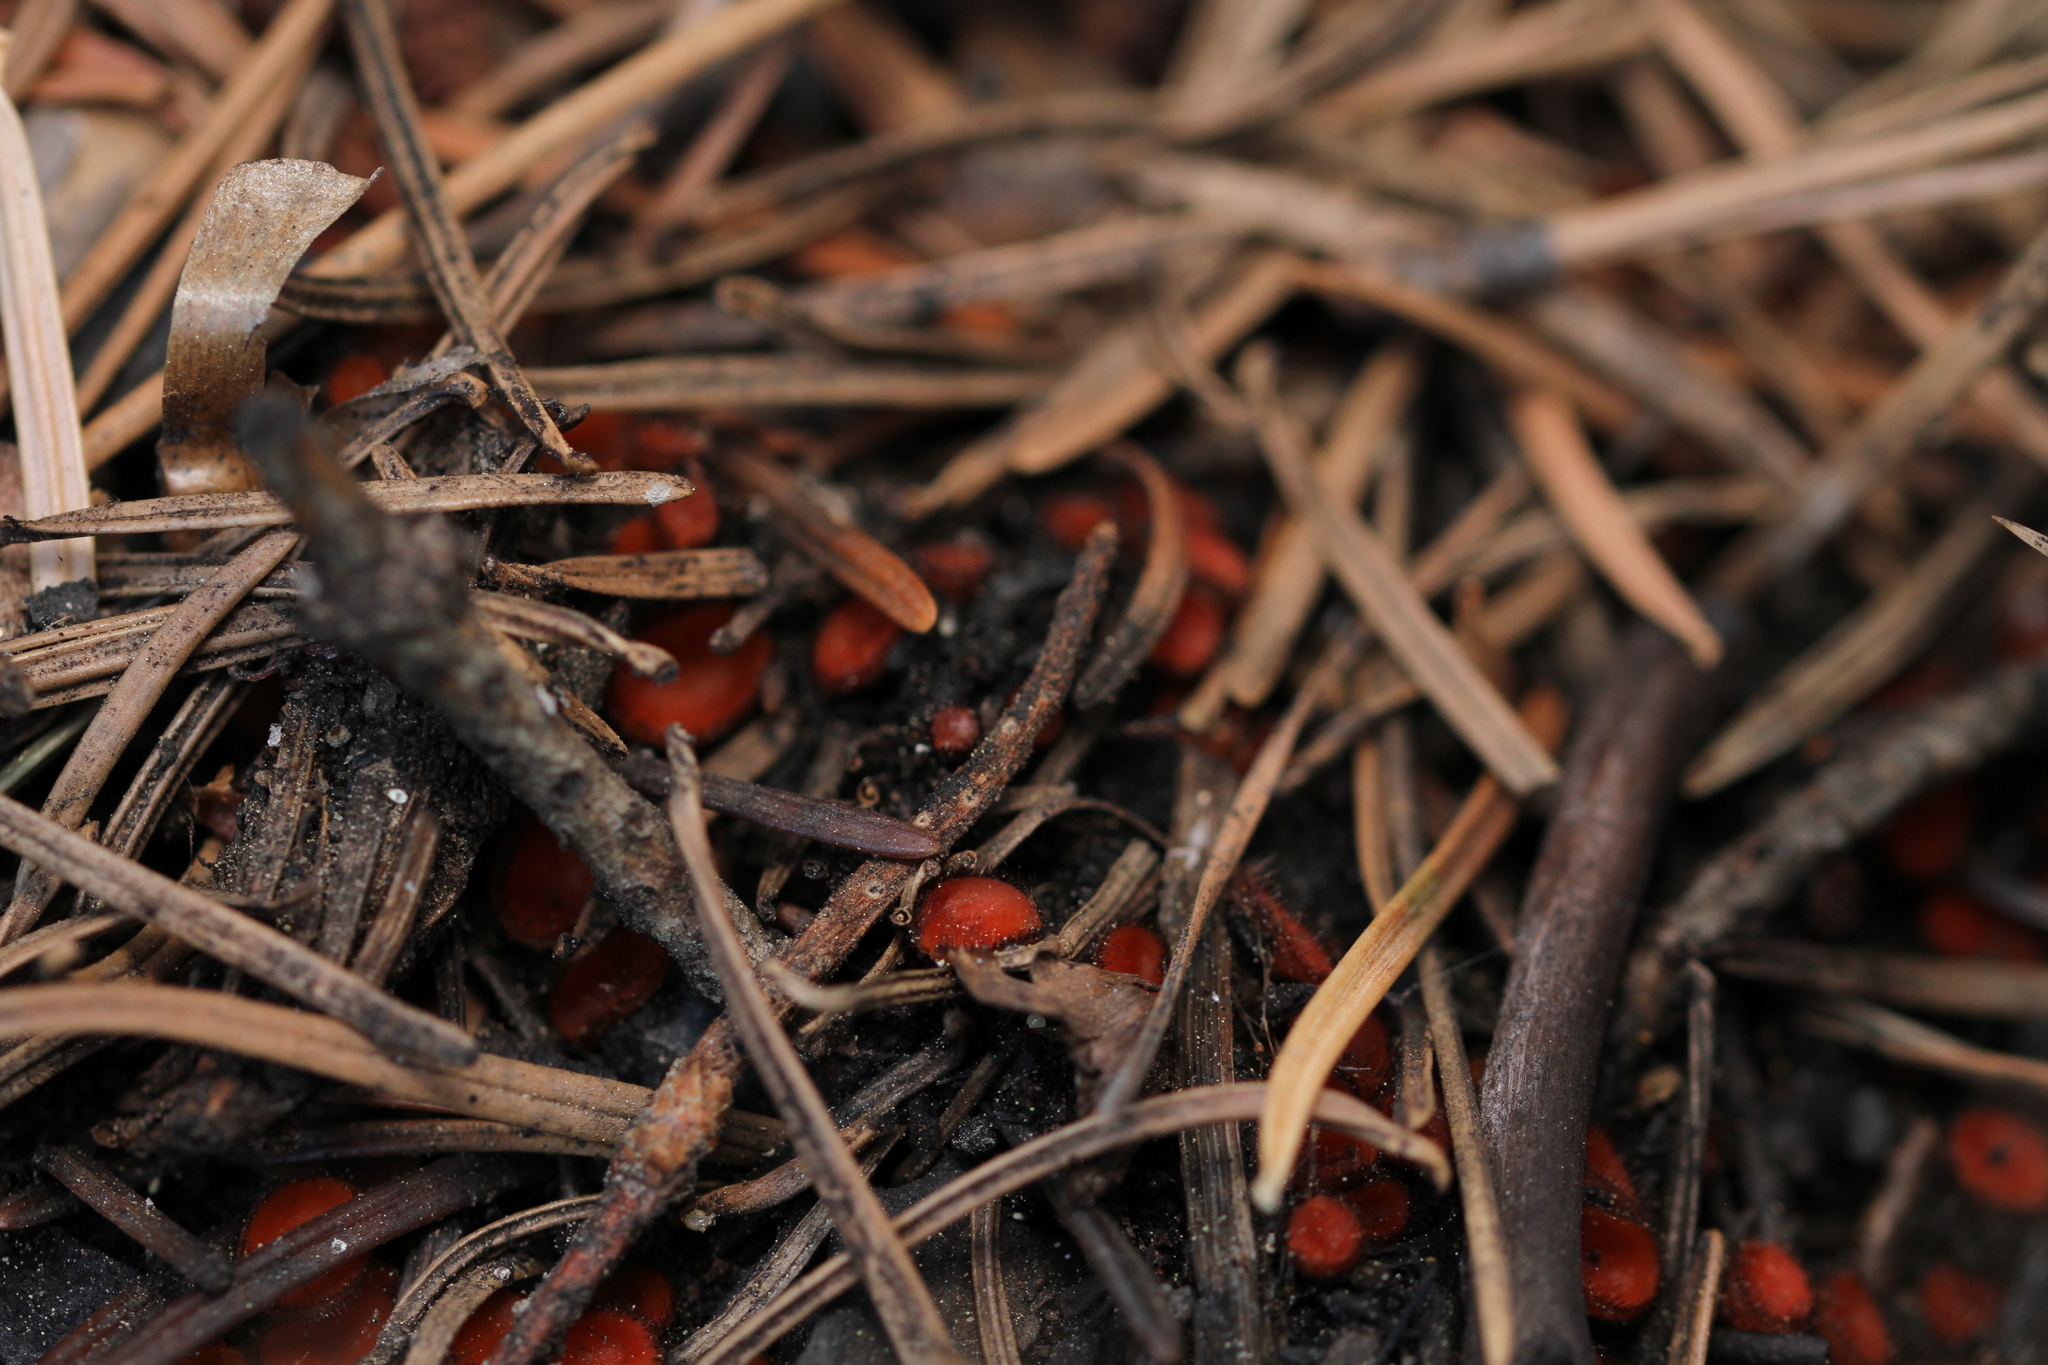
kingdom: Fungi
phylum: Ascomycota
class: Pezizomycetes
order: Pezizales
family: Pyronemataceae
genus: Scutellinia
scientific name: Scutellinia
